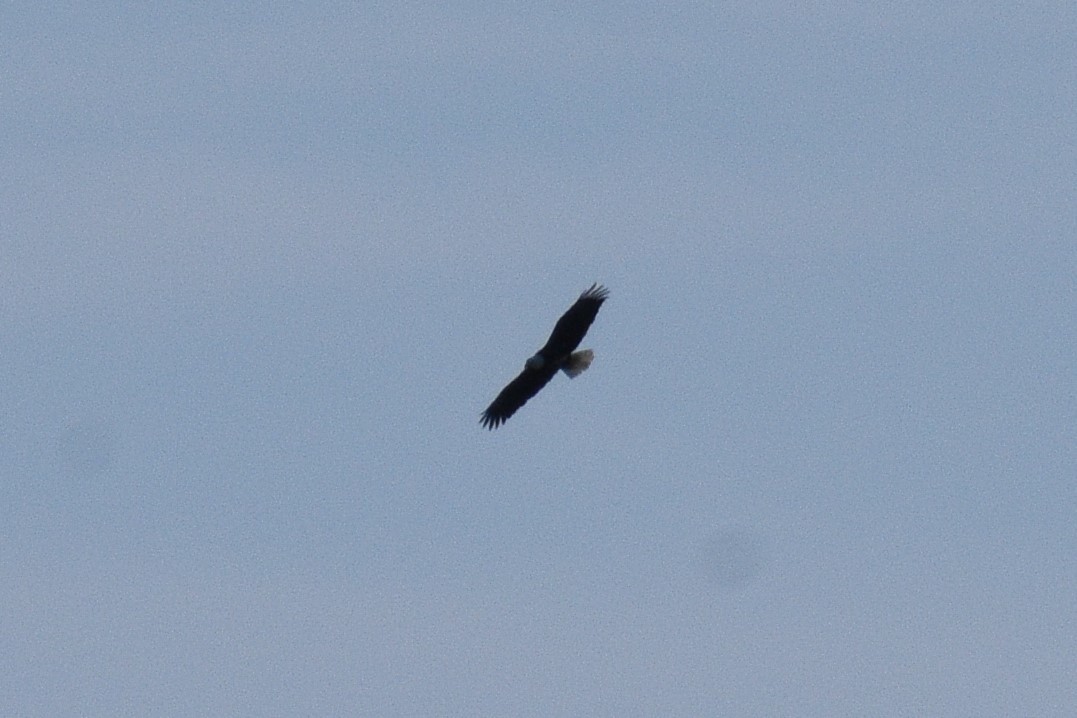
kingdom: Animalia
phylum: Chordata
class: Aves
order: Accipitriformes
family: Accipitridae
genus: Haliaeetus
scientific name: Haliaeetus leucocephalus
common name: Bald eagle
